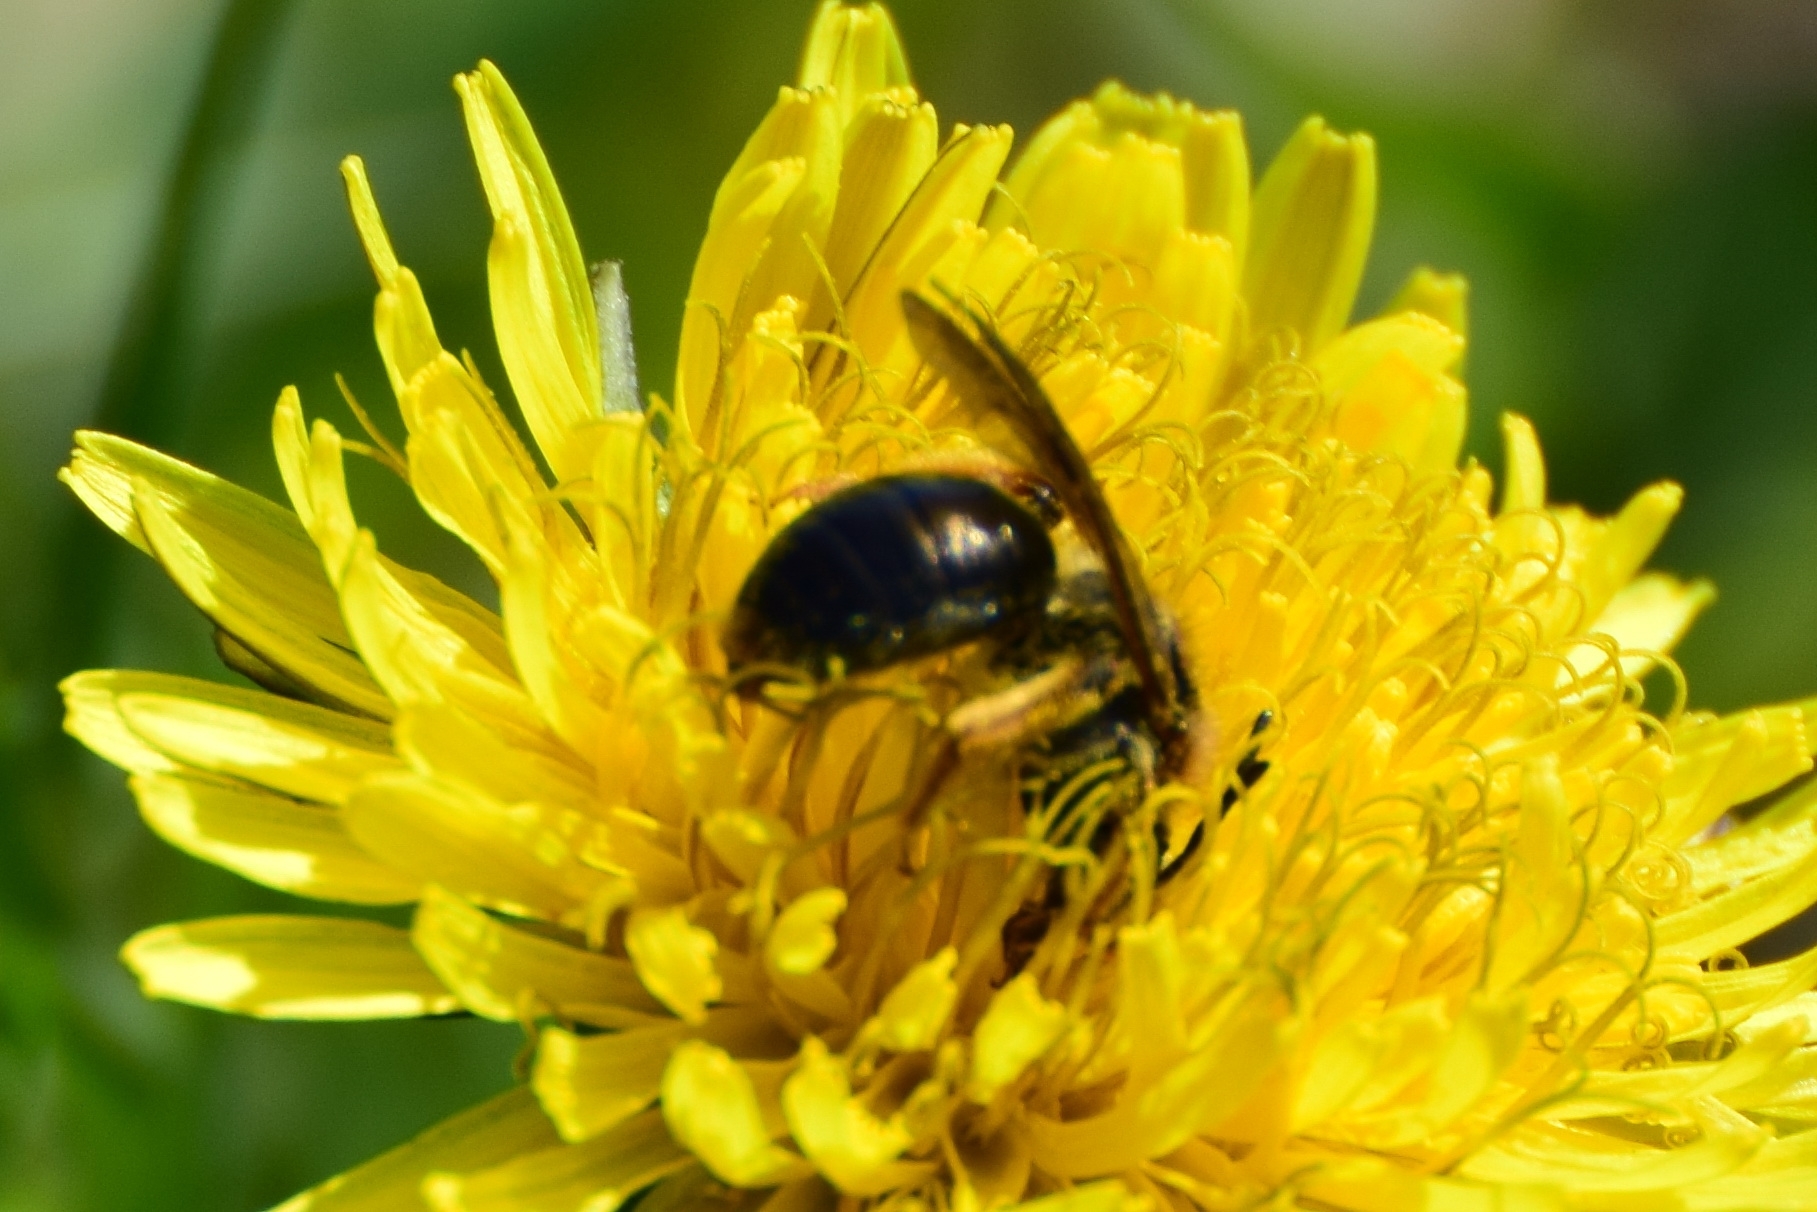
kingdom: Animalia
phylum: Arthropoda
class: Insecta
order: Hymenoptera
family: Andrenidae
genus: Andrena
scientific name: Andrena haemorrhoa
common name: Early mining bee
